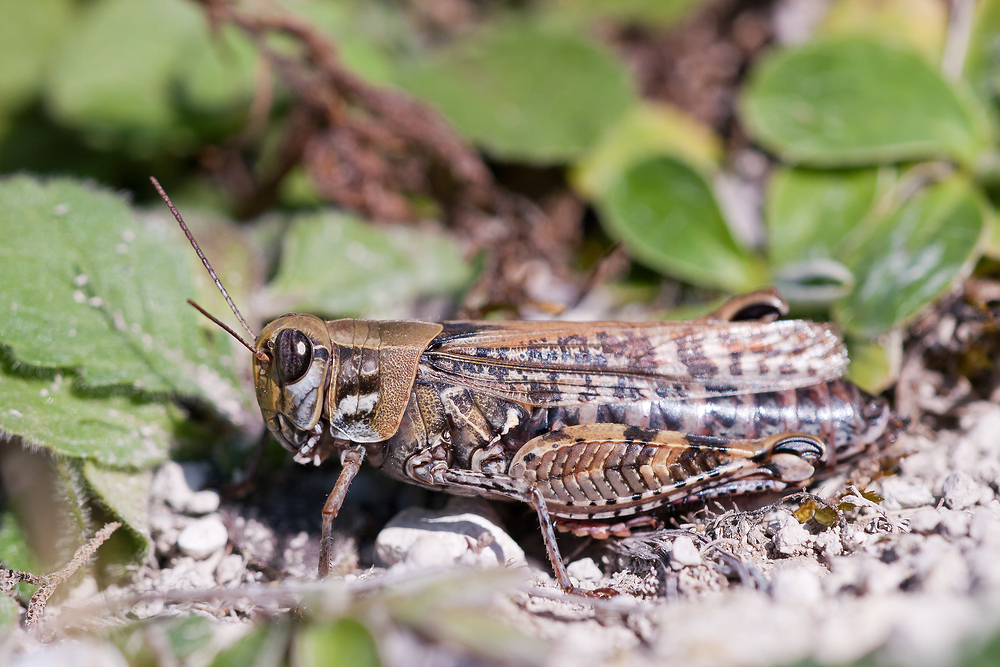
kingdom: Animalia
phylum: Arthropoda
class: Insecta
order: Orthoptera
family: Acrididae
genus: Calliptamus
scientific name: Calliptamus italicus
